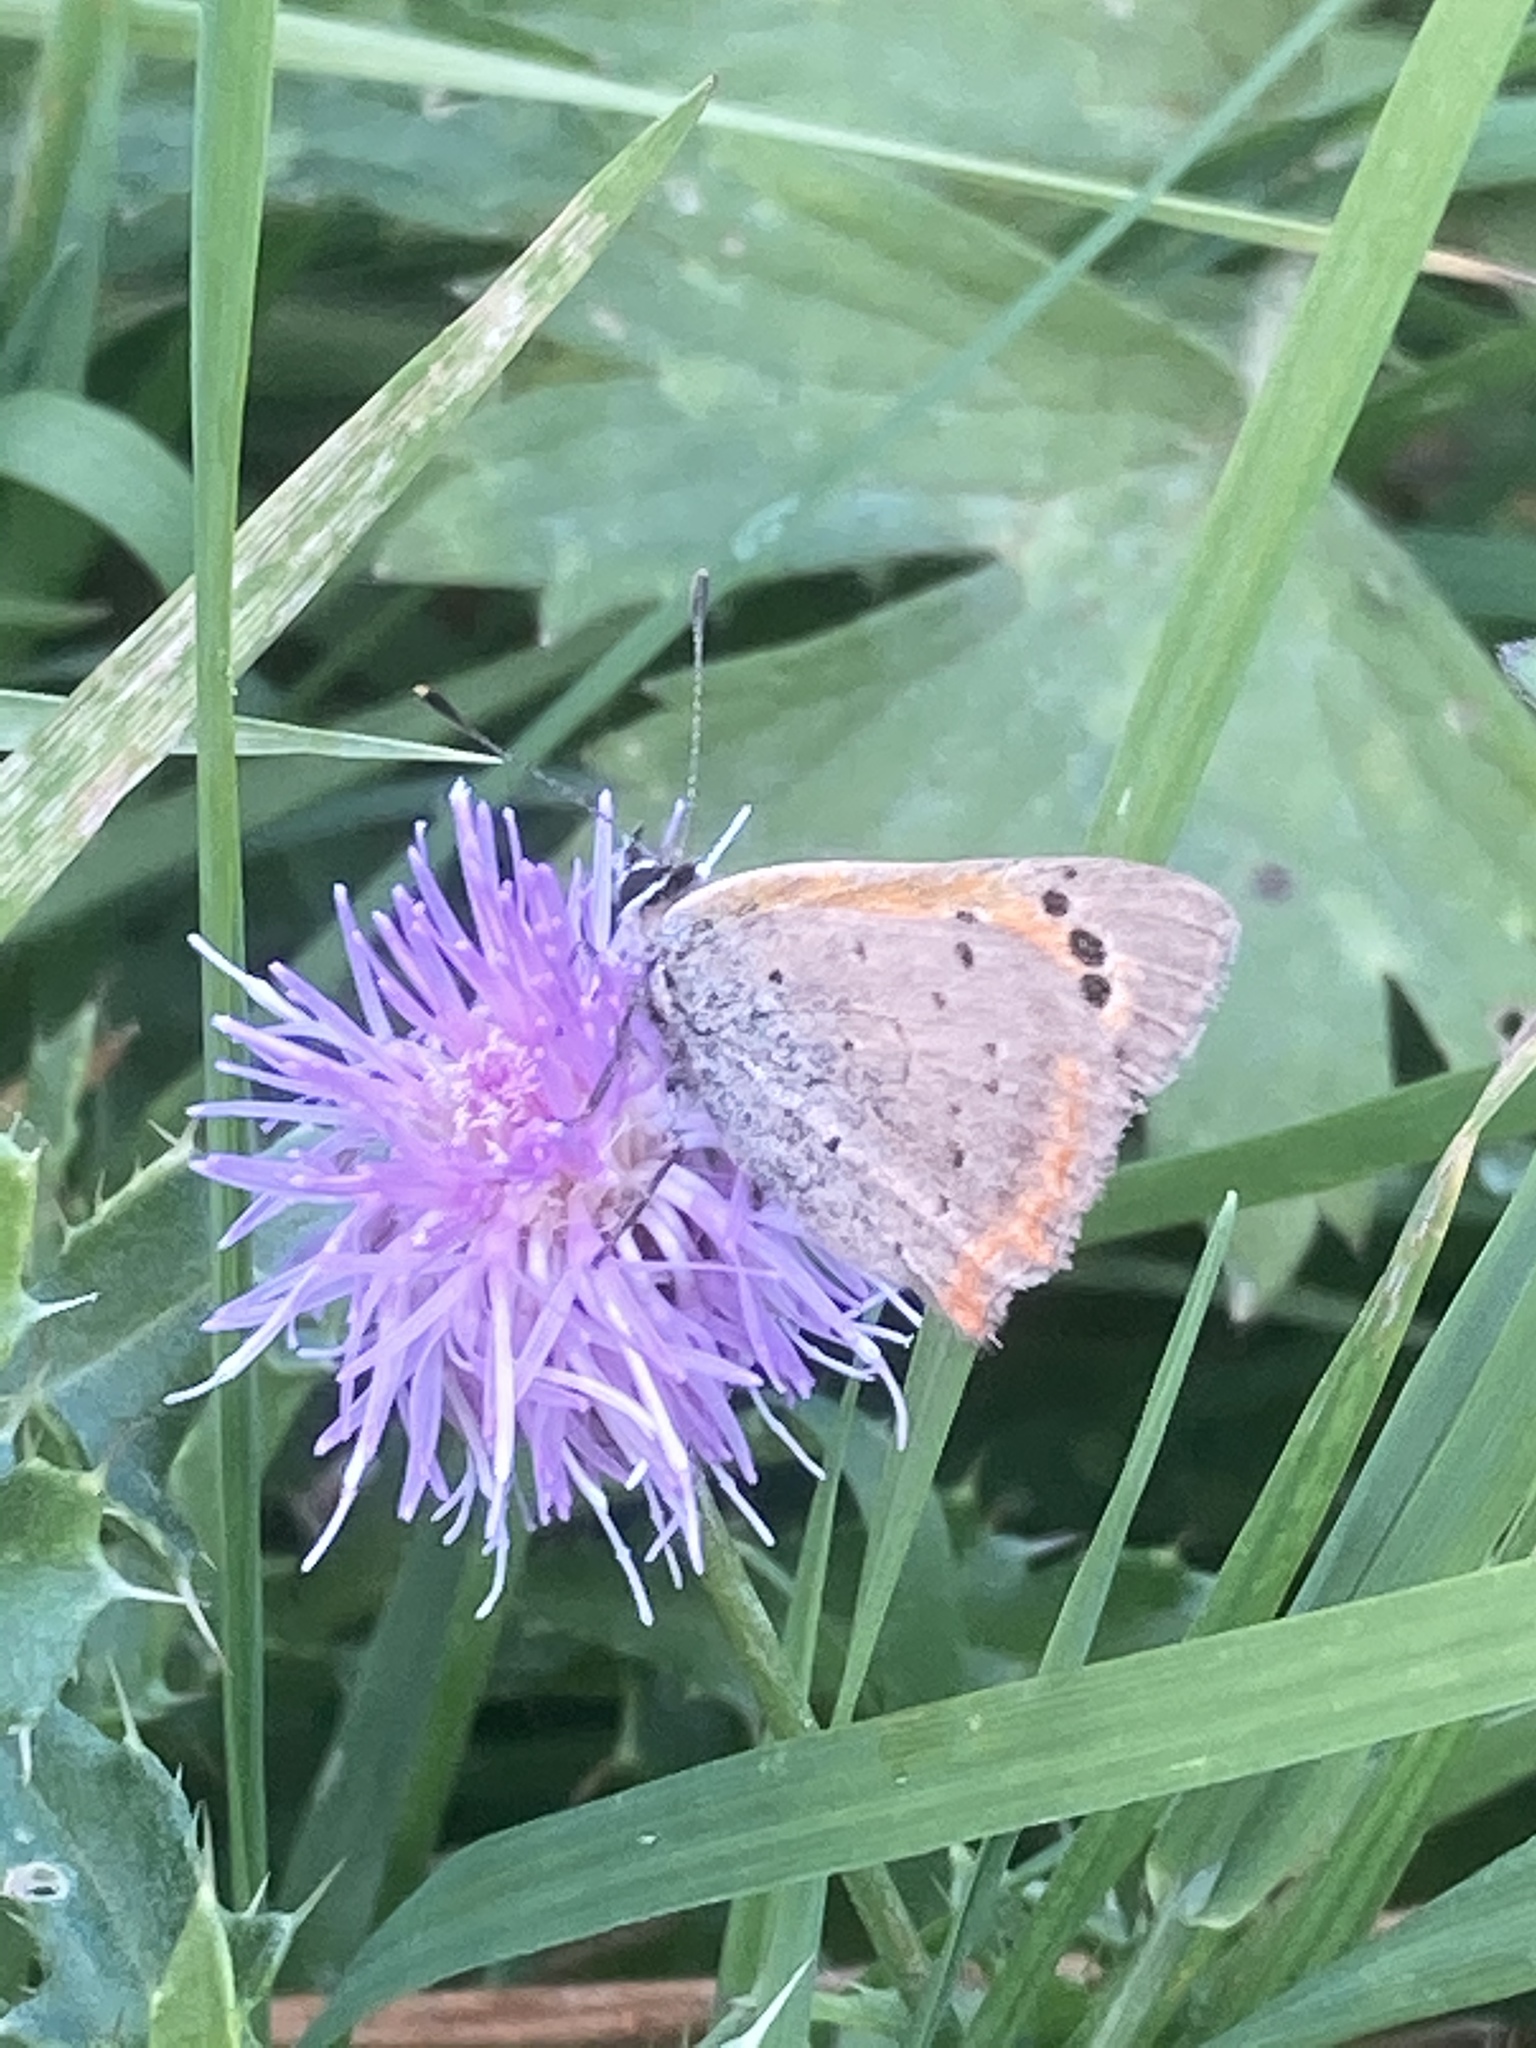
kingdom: Animalia
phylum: Arthropoda
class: Insecta
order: Lepidoptera
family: Lycaenidae
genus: Lycaena
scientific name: Lycaena phlaeas
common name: Small copper
